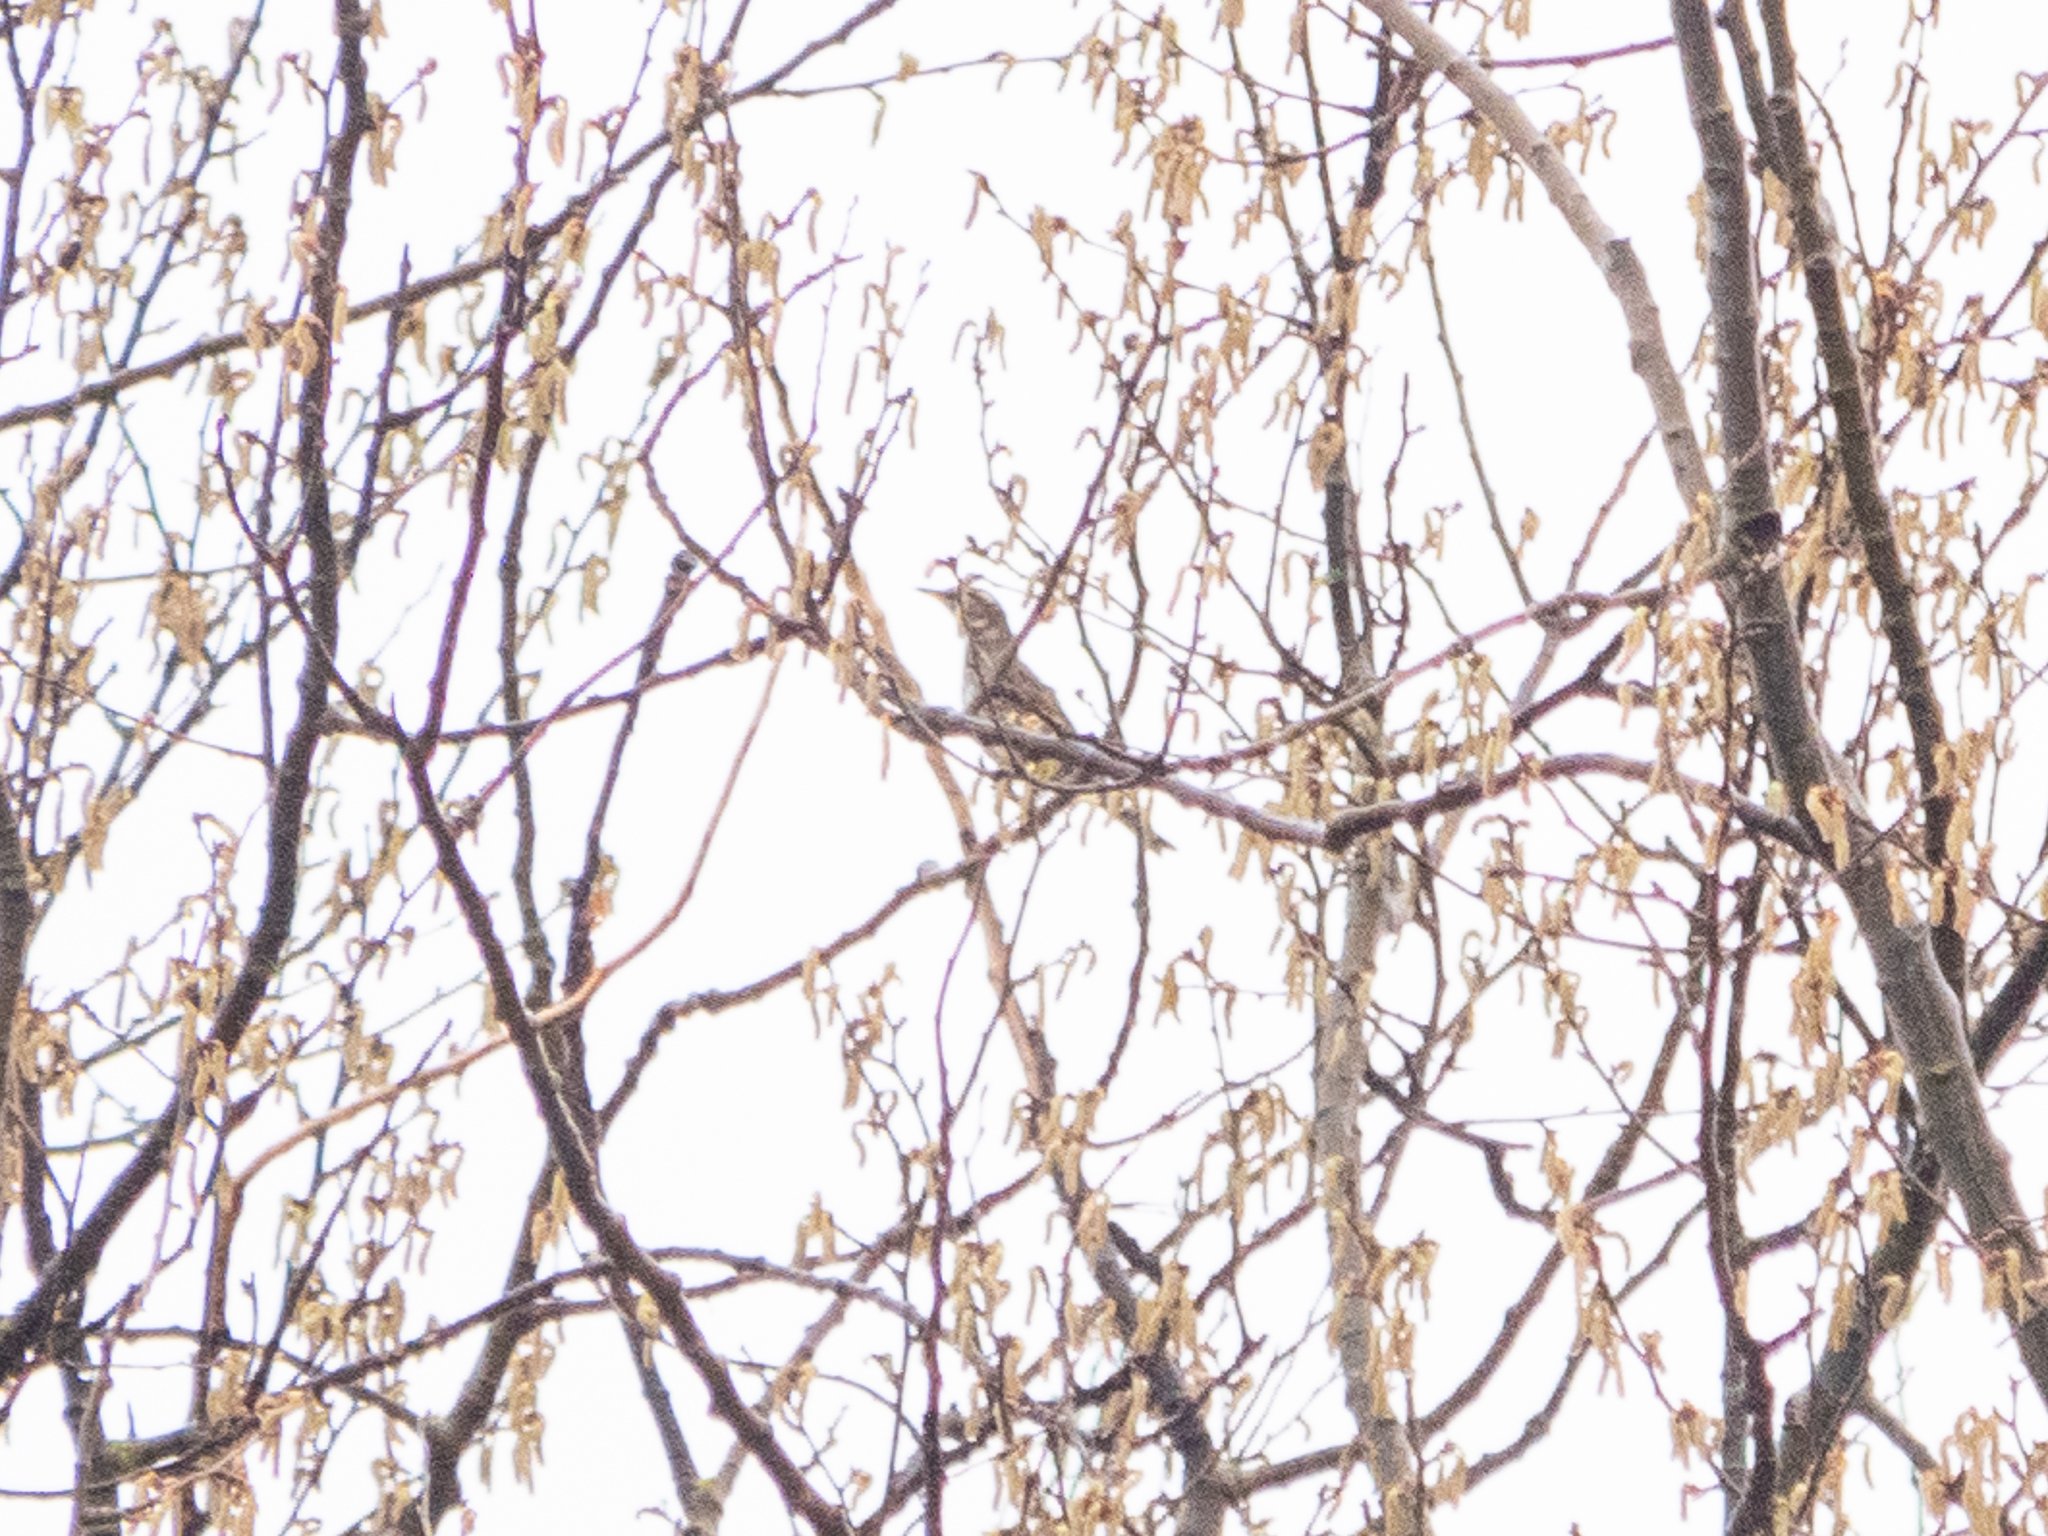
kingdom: Animalia
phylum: Chordata
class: Aves
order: Passeriformes
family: Turdidae
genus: Turdus
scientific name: Turdus iliacus
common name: Redwing
